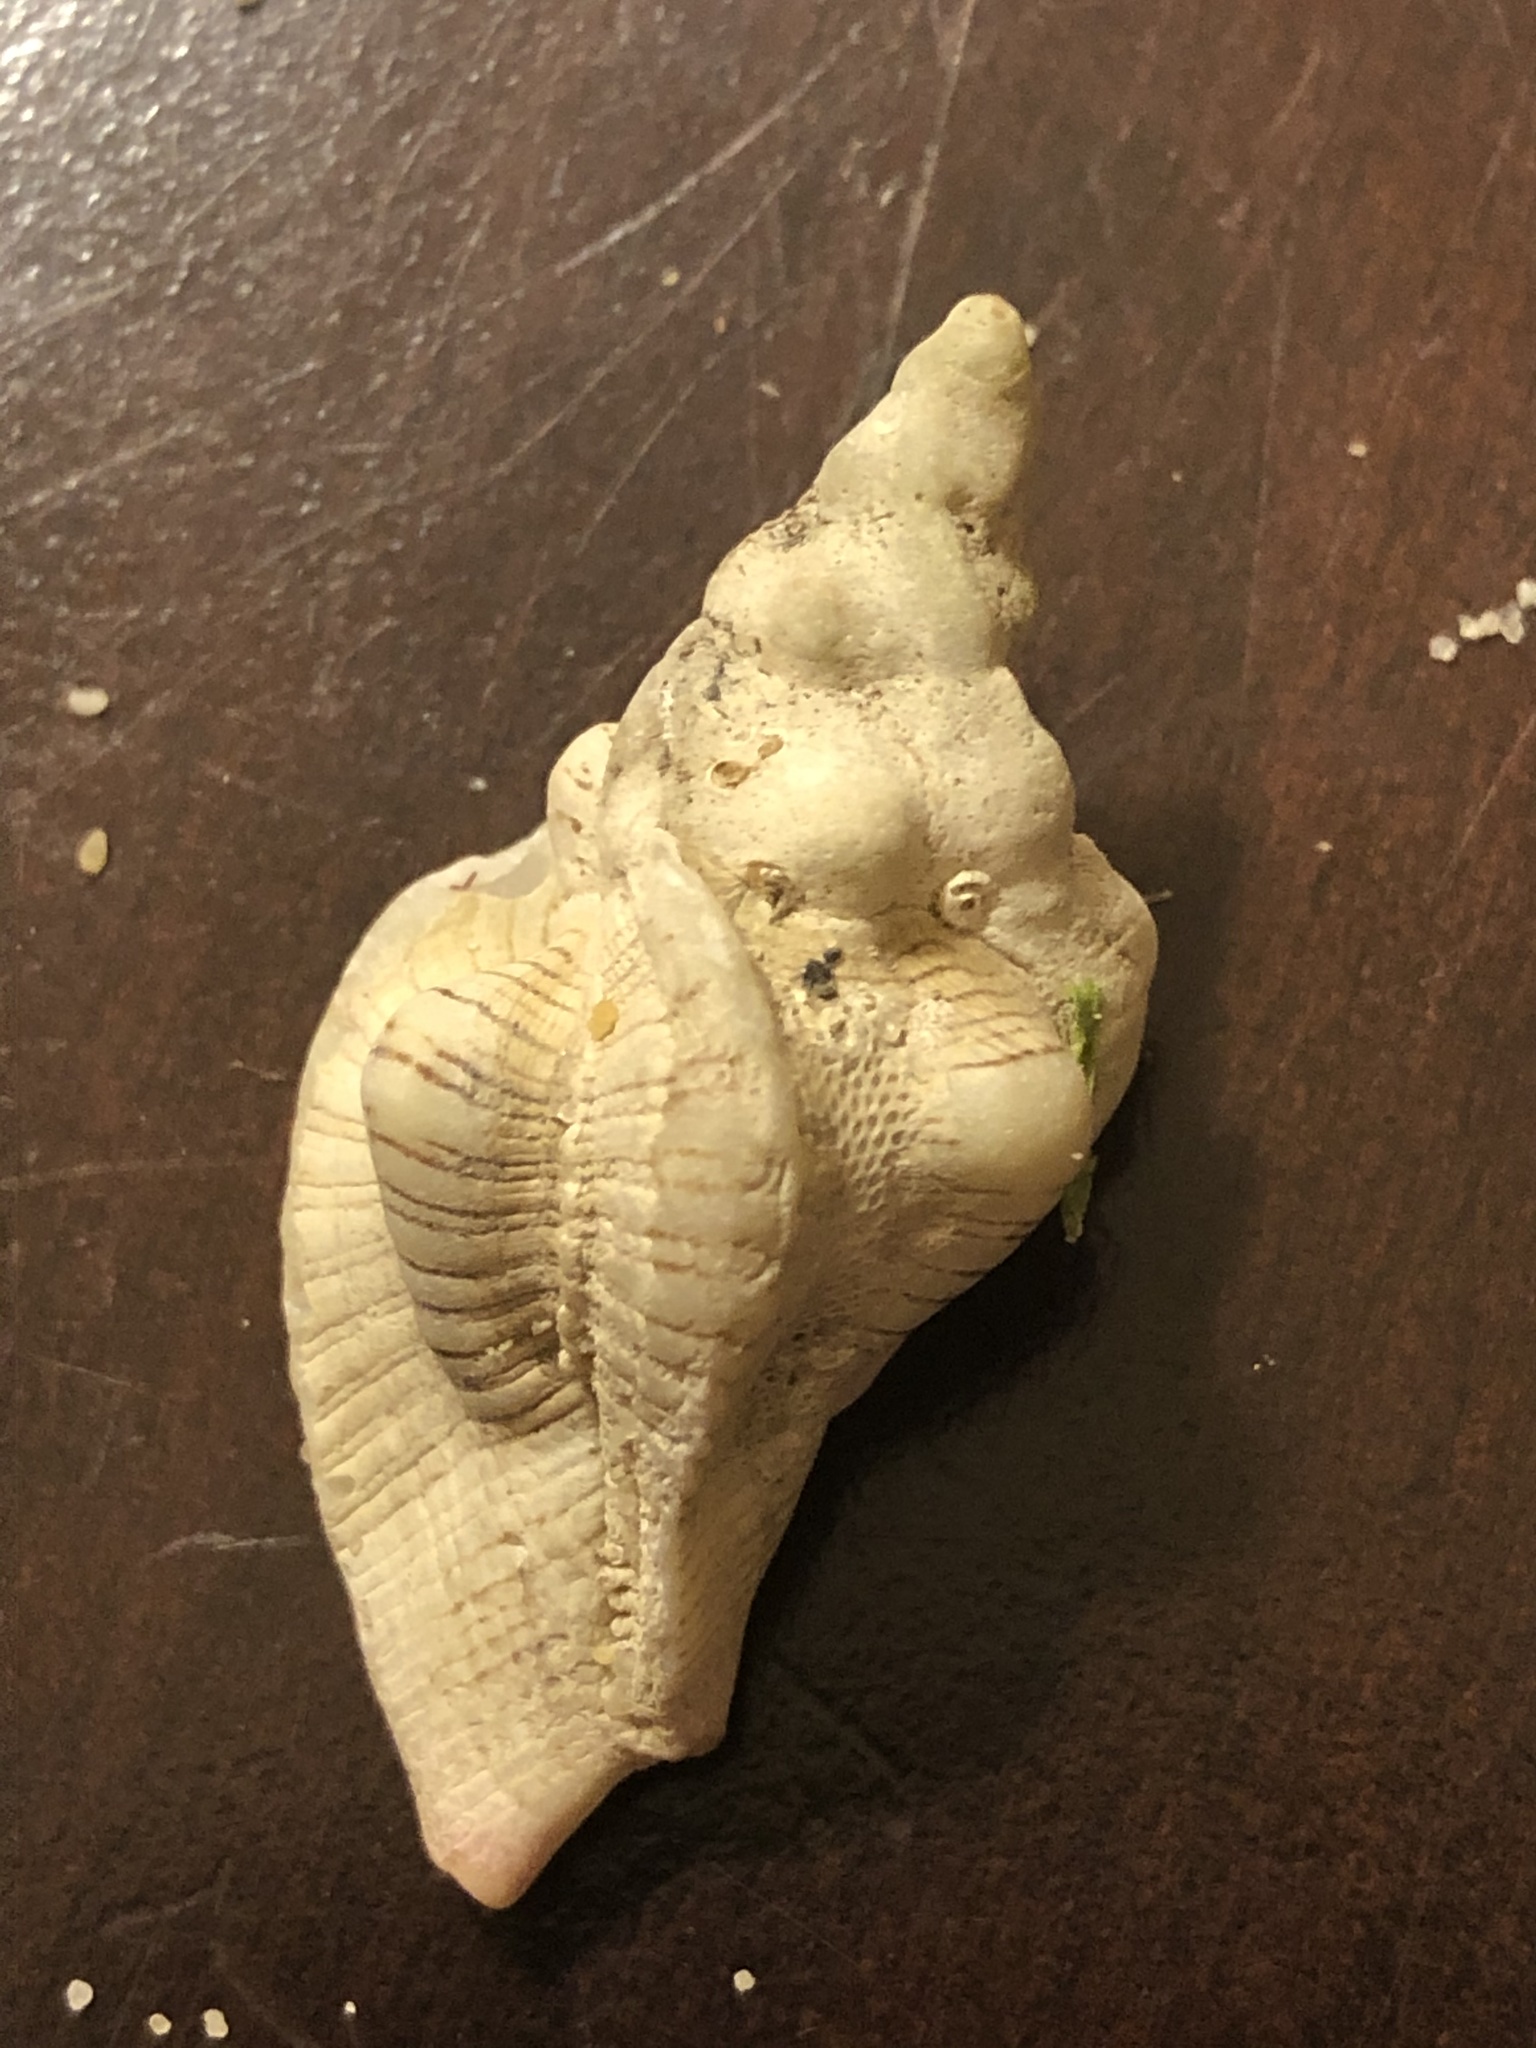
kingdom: Animalia
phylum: Mollusca
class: Gastropoda
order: Neogastropoda
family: Muricidae
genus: Pteropurpura
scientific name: Pteropurpura festiva
